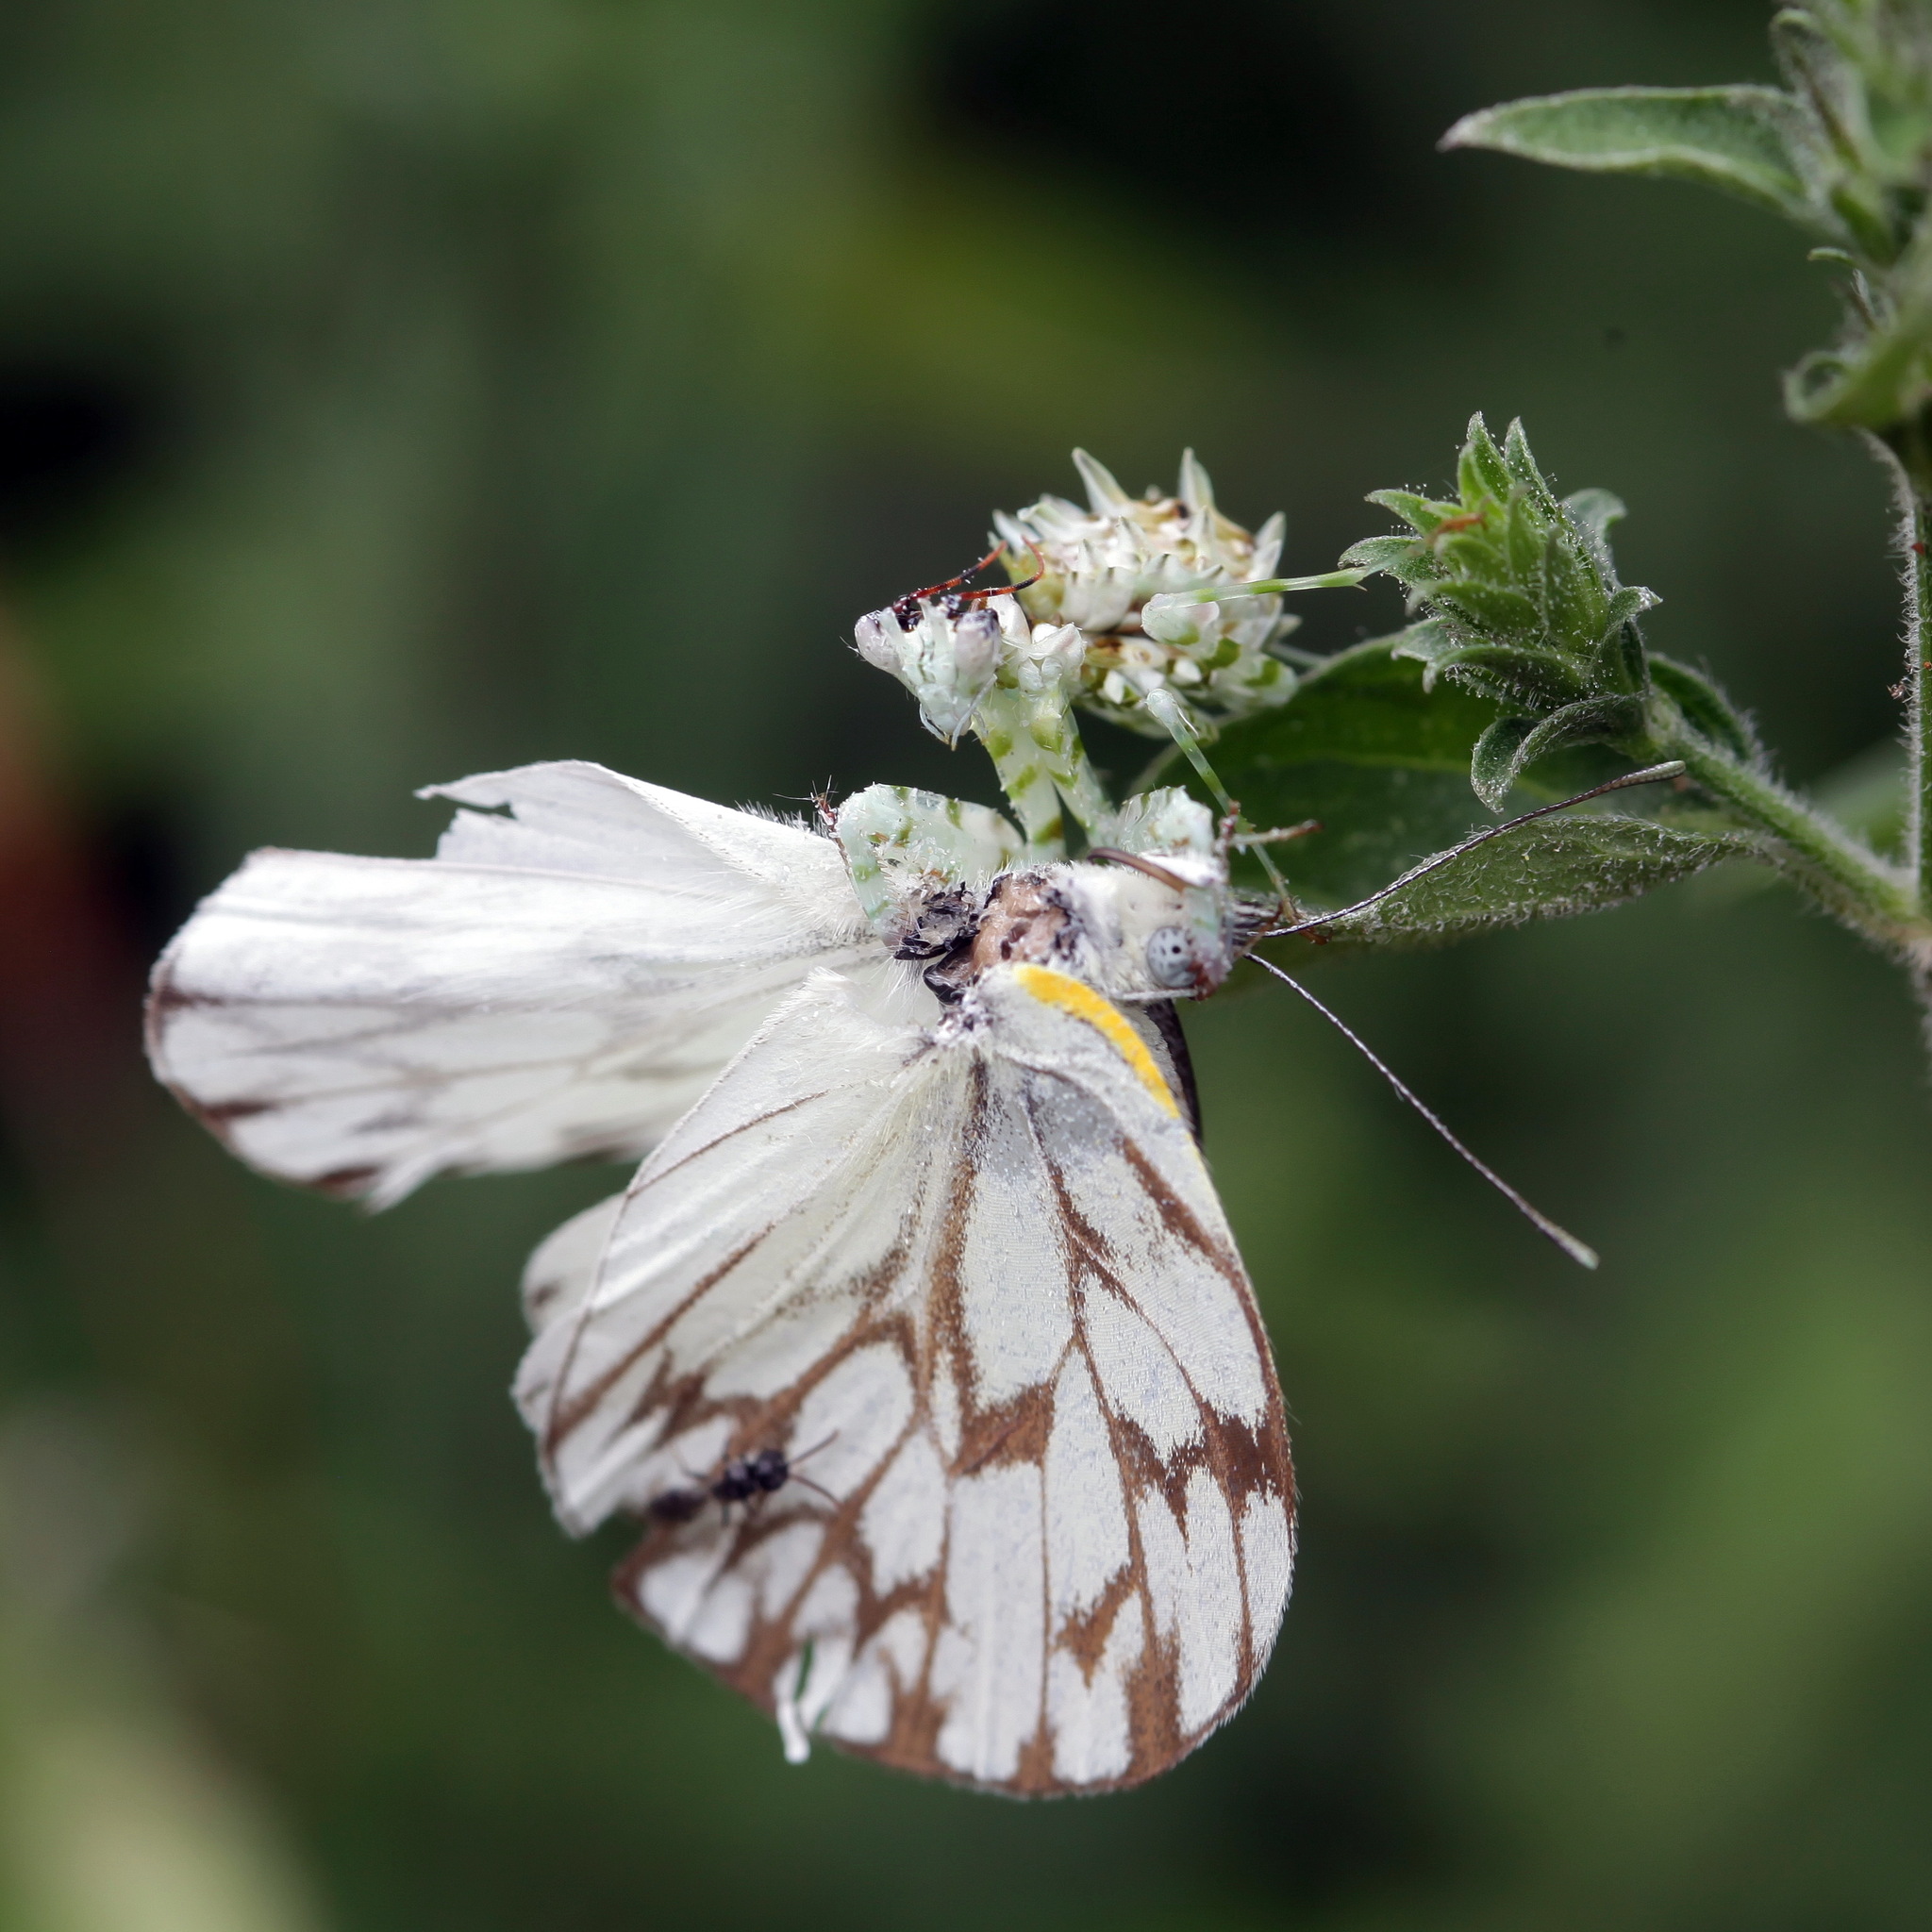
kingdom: Animalia
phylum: Arthropoda
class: Insecta
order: Lepidoptera
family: Pieridae
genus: Belenois
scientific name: Belenois gidica
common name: Pointed caper white
